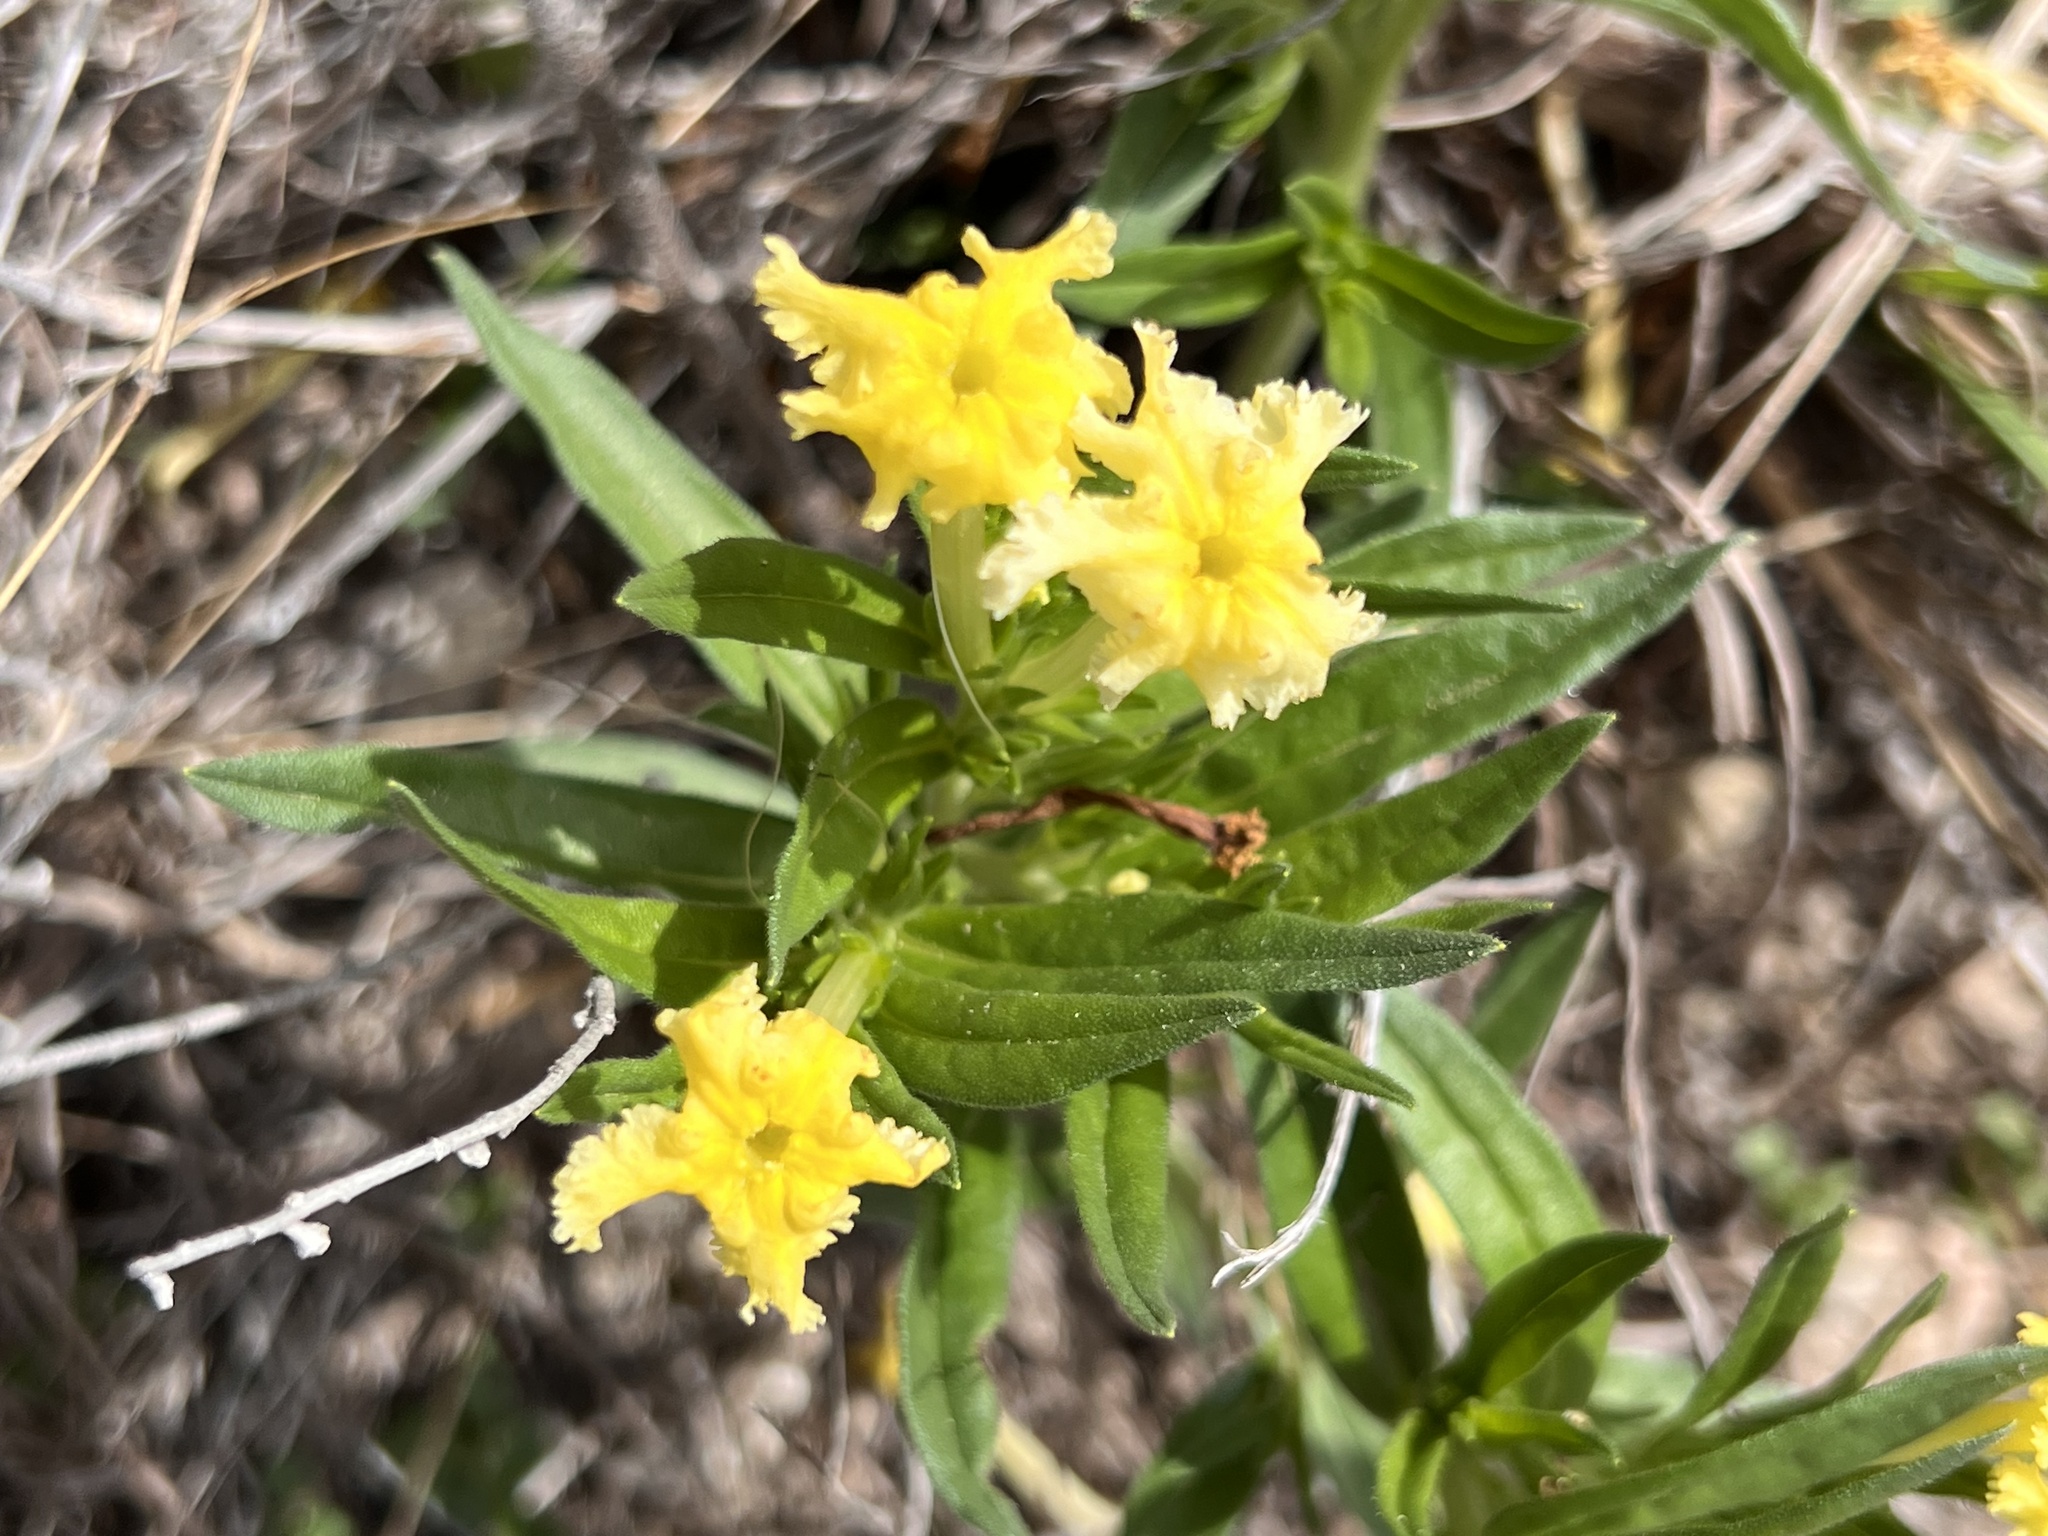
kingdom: Plantae
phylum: Tracheophyta
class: Magnoliopsida
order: Boraginales
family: Boraginaceae
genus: Lithospermum
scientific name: Lithospermum incisum
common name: Fringed gromwell
